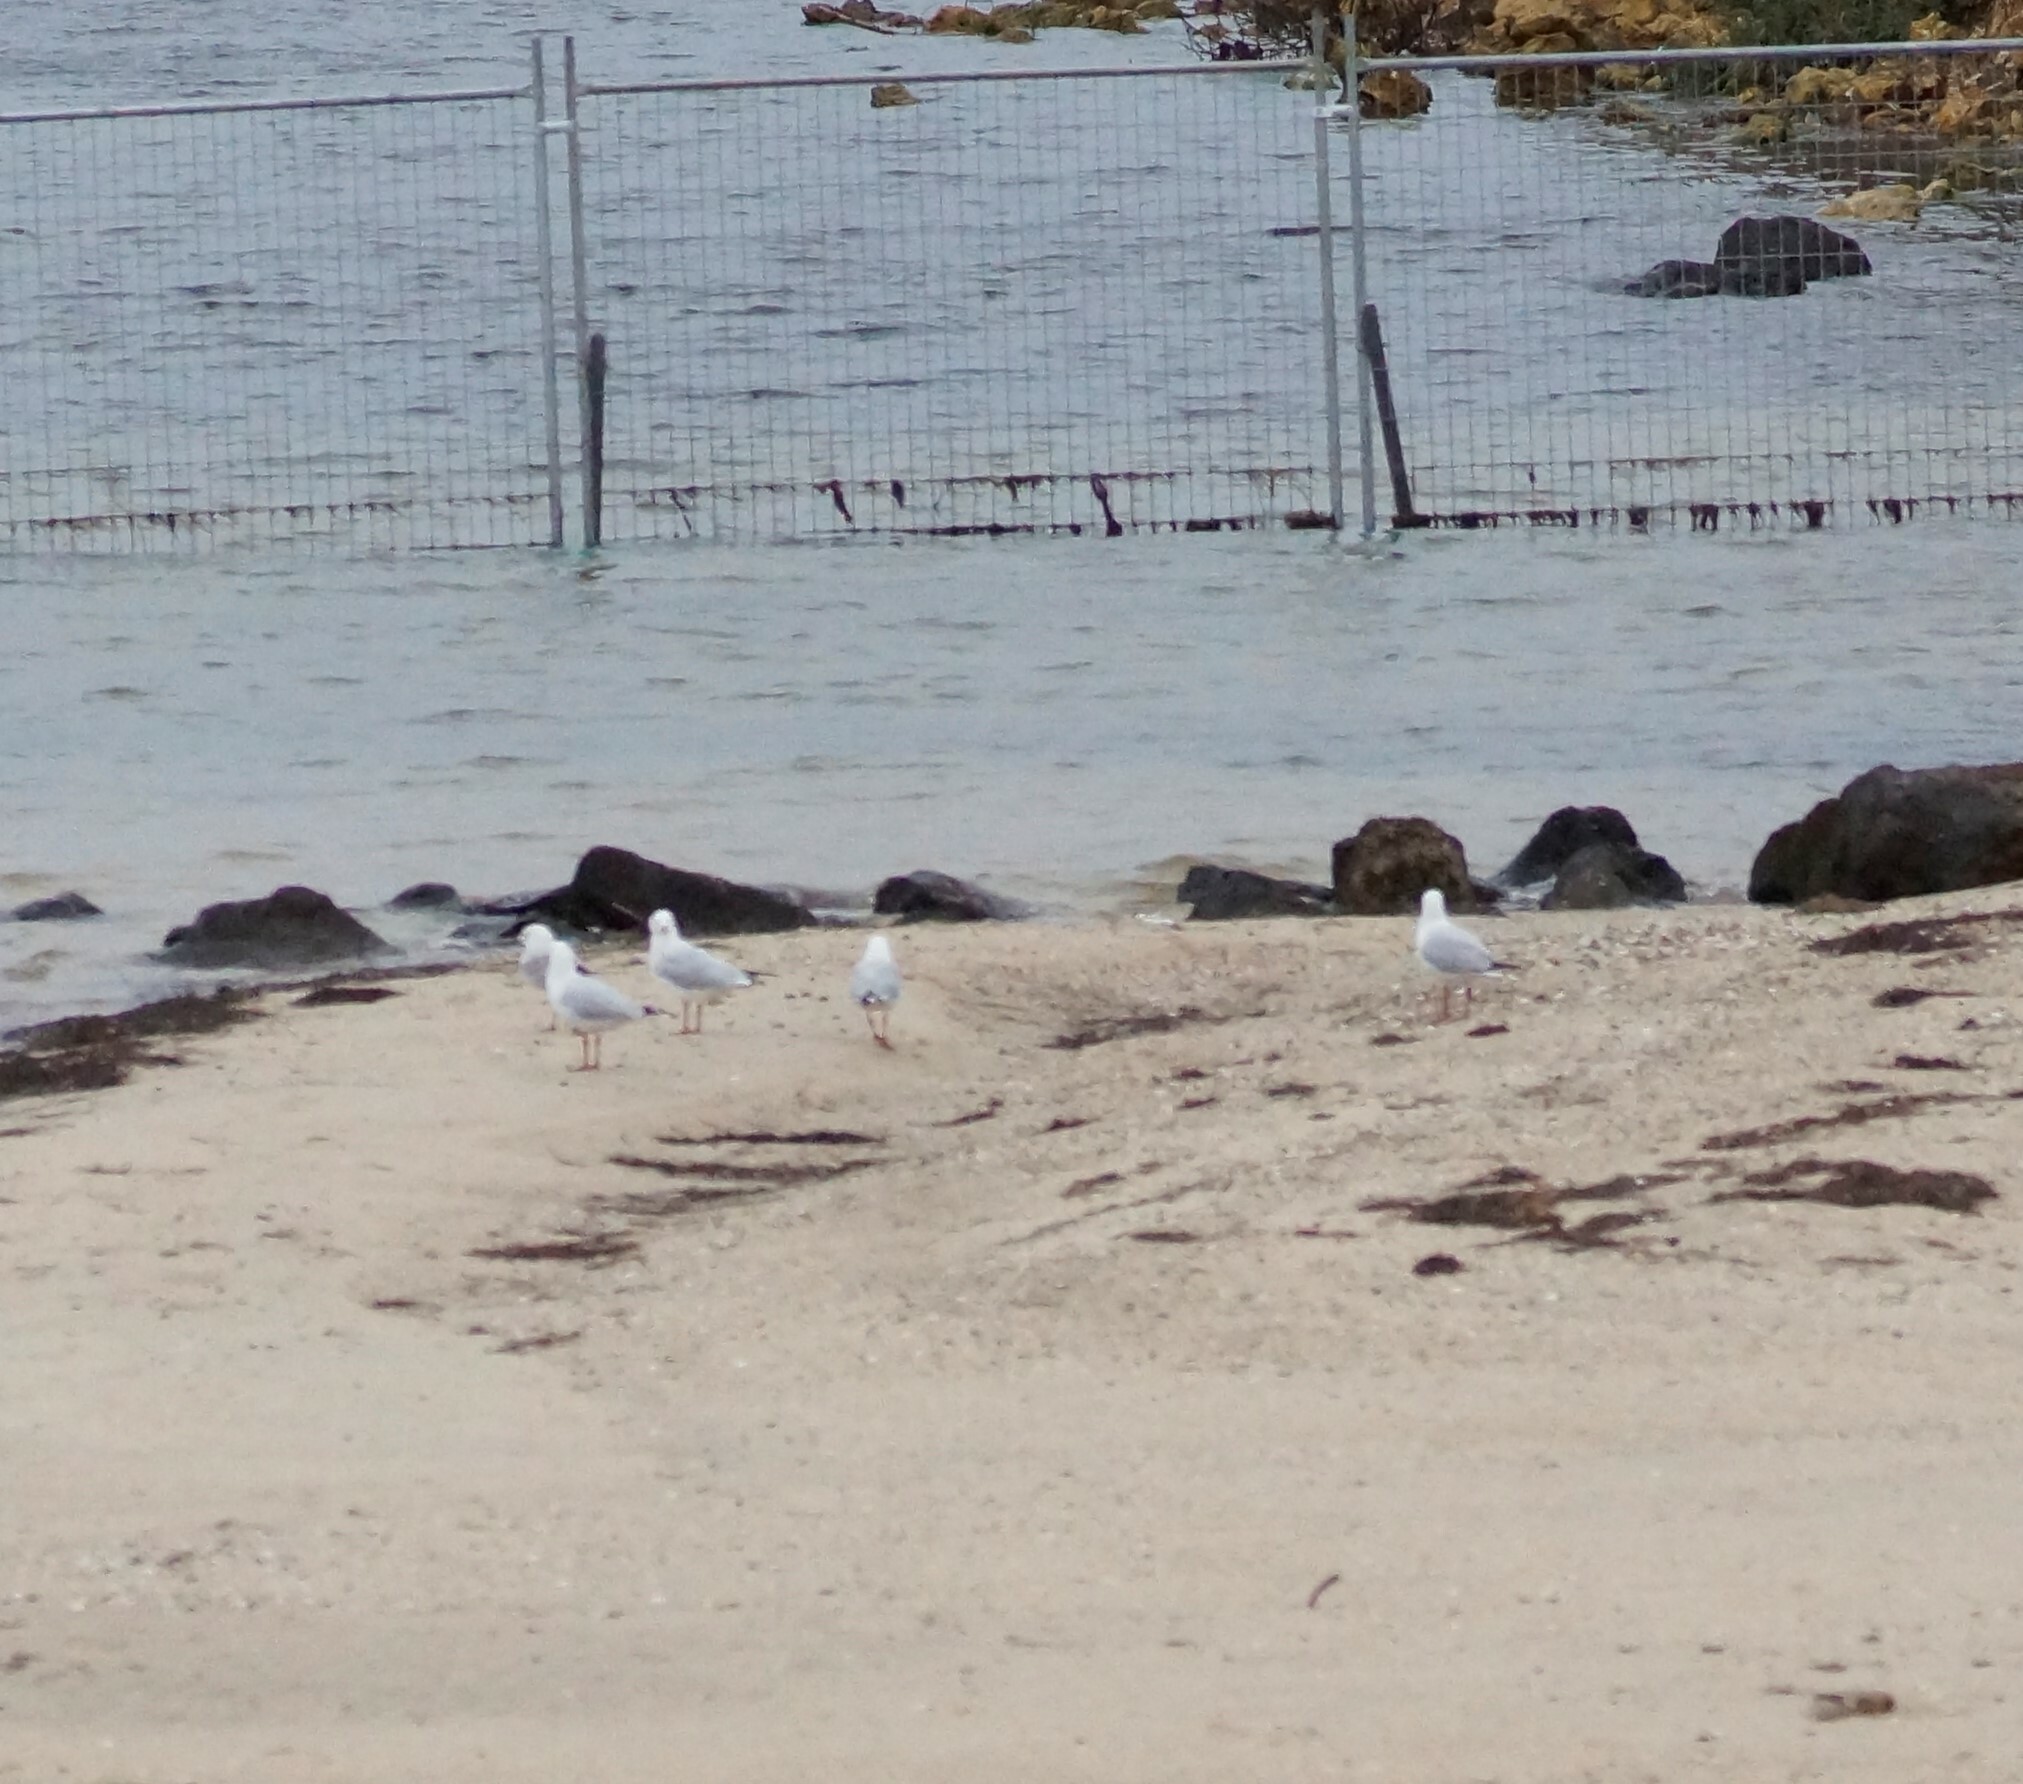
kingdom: Animalia
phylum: Chordata
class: Aves
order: Charadriiformes
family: Laridae
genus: Chroicocephalus
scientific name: Chroicocephalus novaehollandiae
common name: Silver gull
